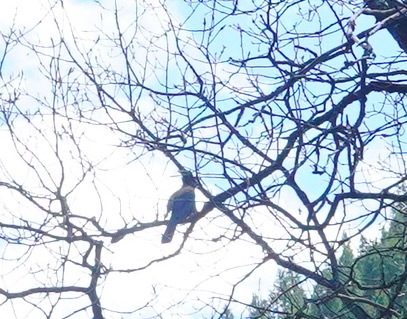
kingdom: Animalia
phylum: Chordata
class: Aves
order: Passeriformes
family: Corvidae
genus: Cyanocitta
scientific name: Cyanocitta stelleri
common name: Steller's jay
